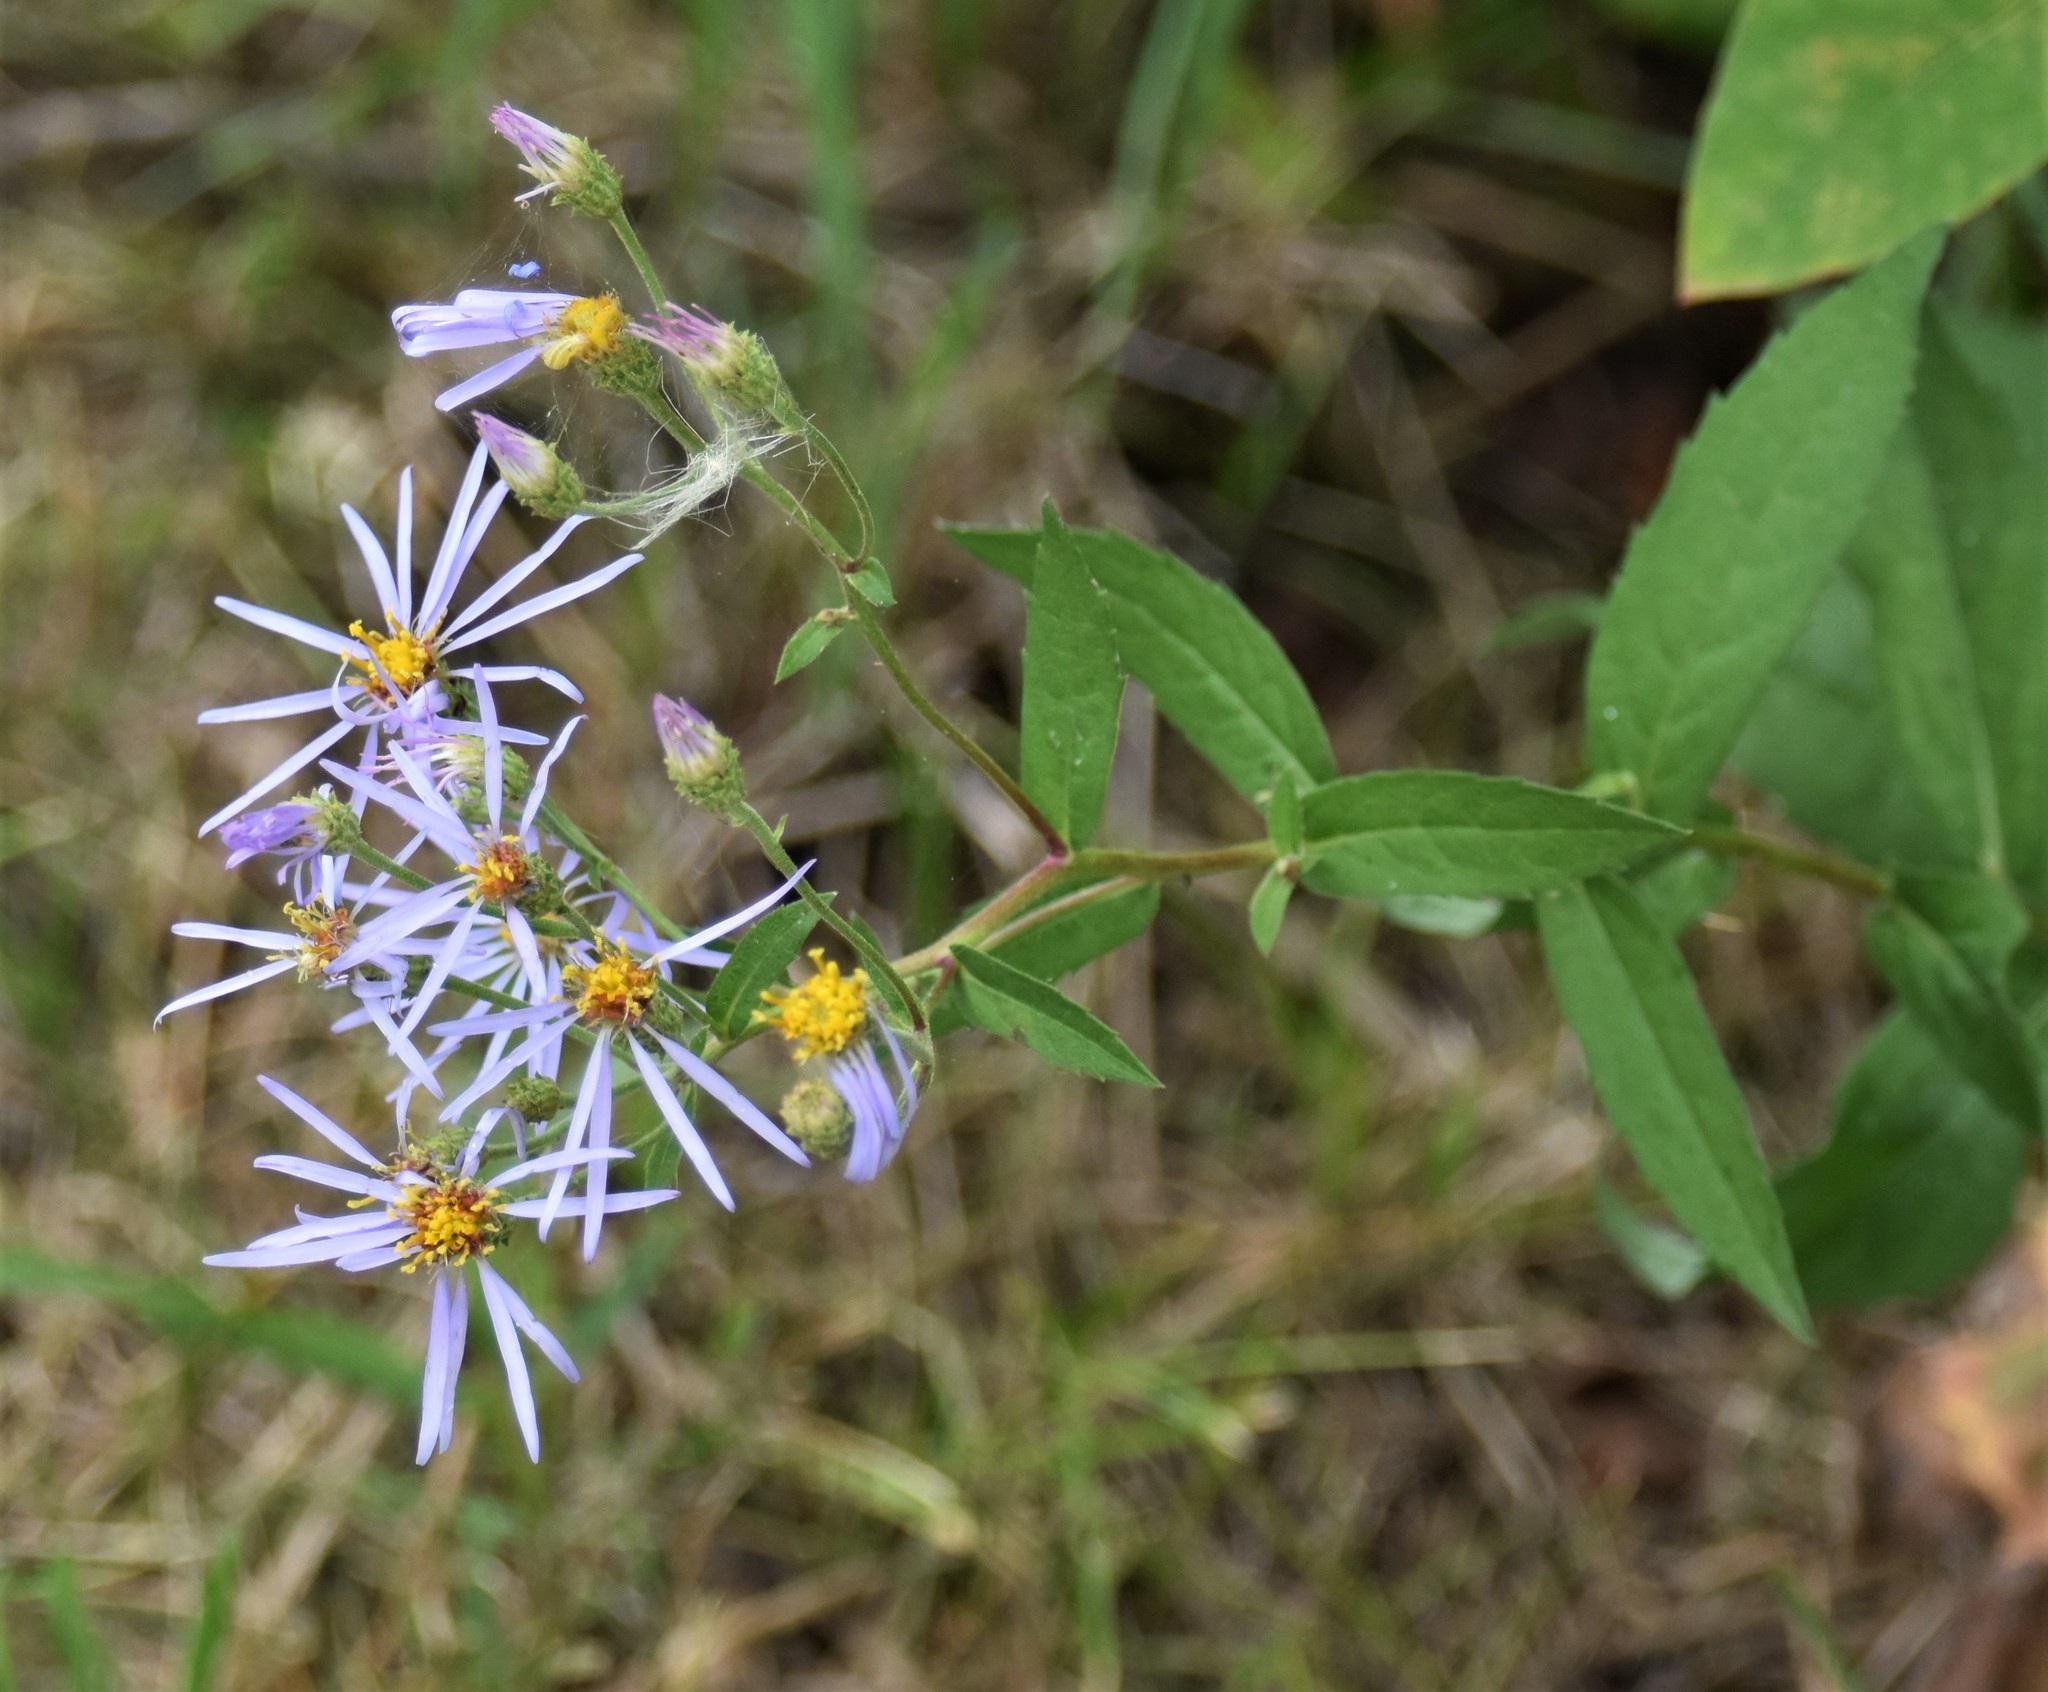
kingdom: Plantae
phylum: Tracheophyta
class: Magnoliopsida
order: Asterales
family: Asteraceae
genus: Eurybia
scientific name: Eurybia conspicua
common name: Showy aster
